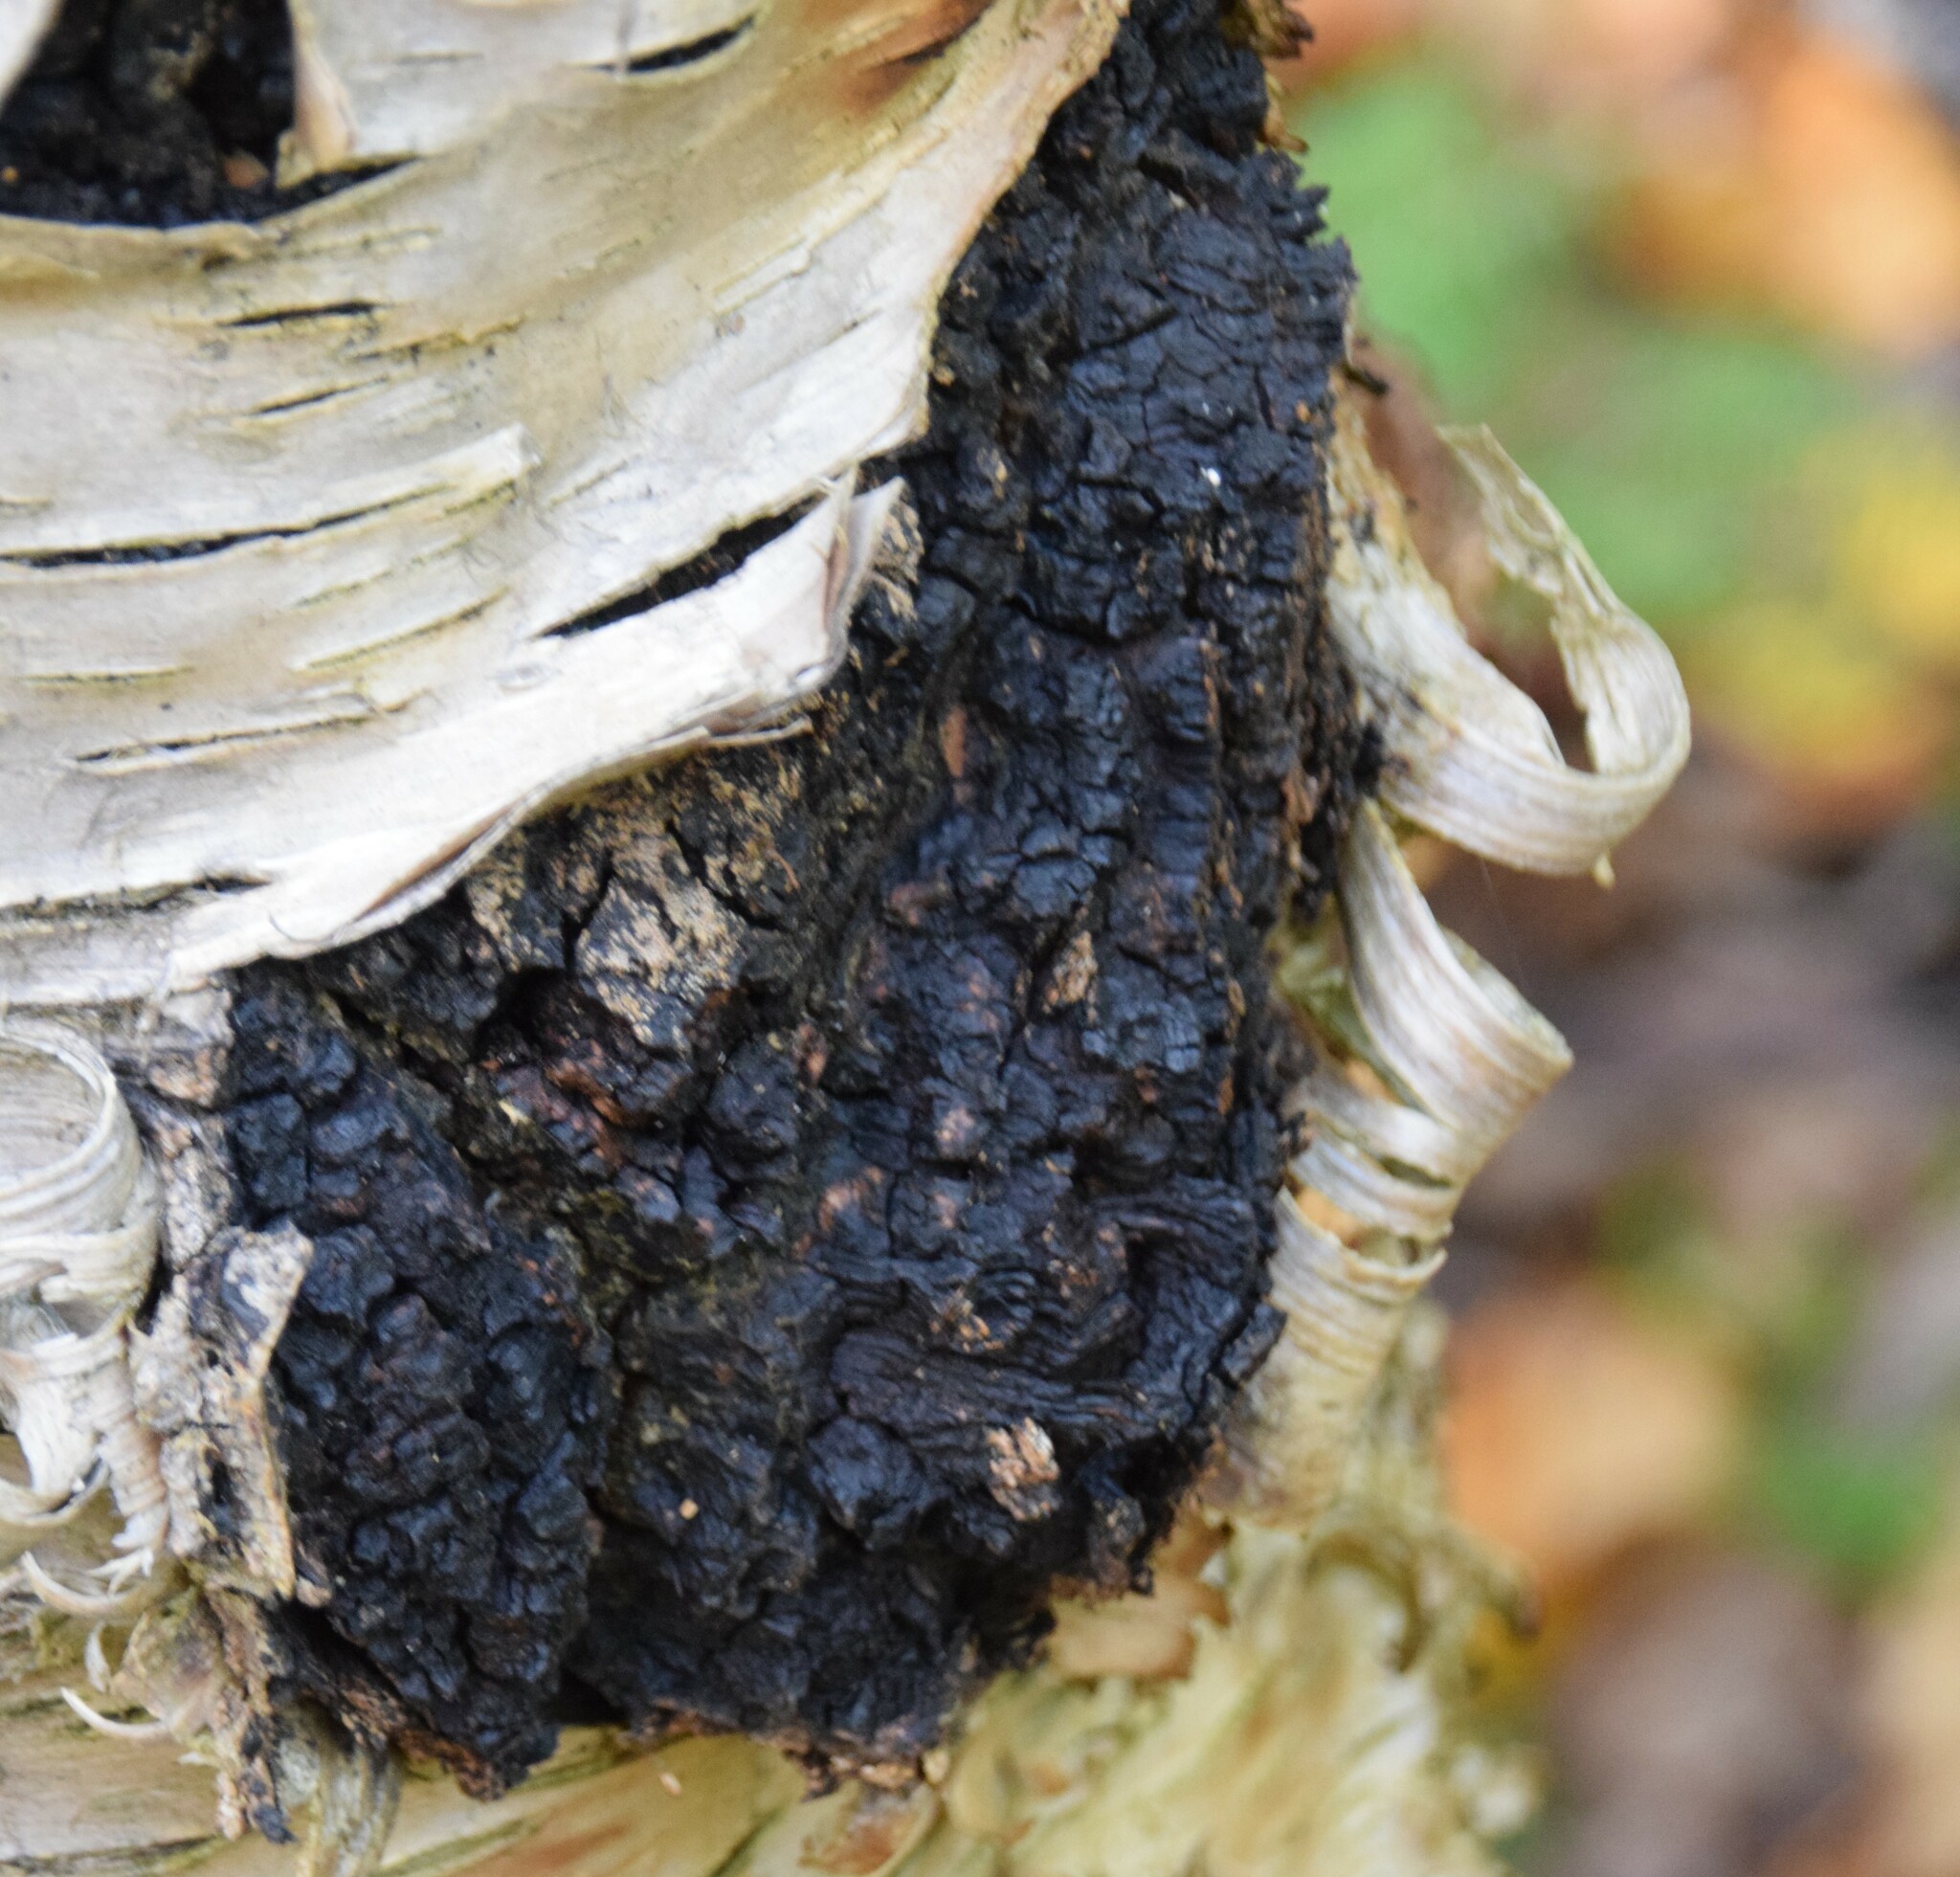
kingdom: Fungi
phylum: Basidiomycota
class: Agaricomycetes
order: Hymenochaetales
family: Hymenochaetaceae
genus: Inonotus
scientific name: Inonotus obliquus
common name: Chaga
